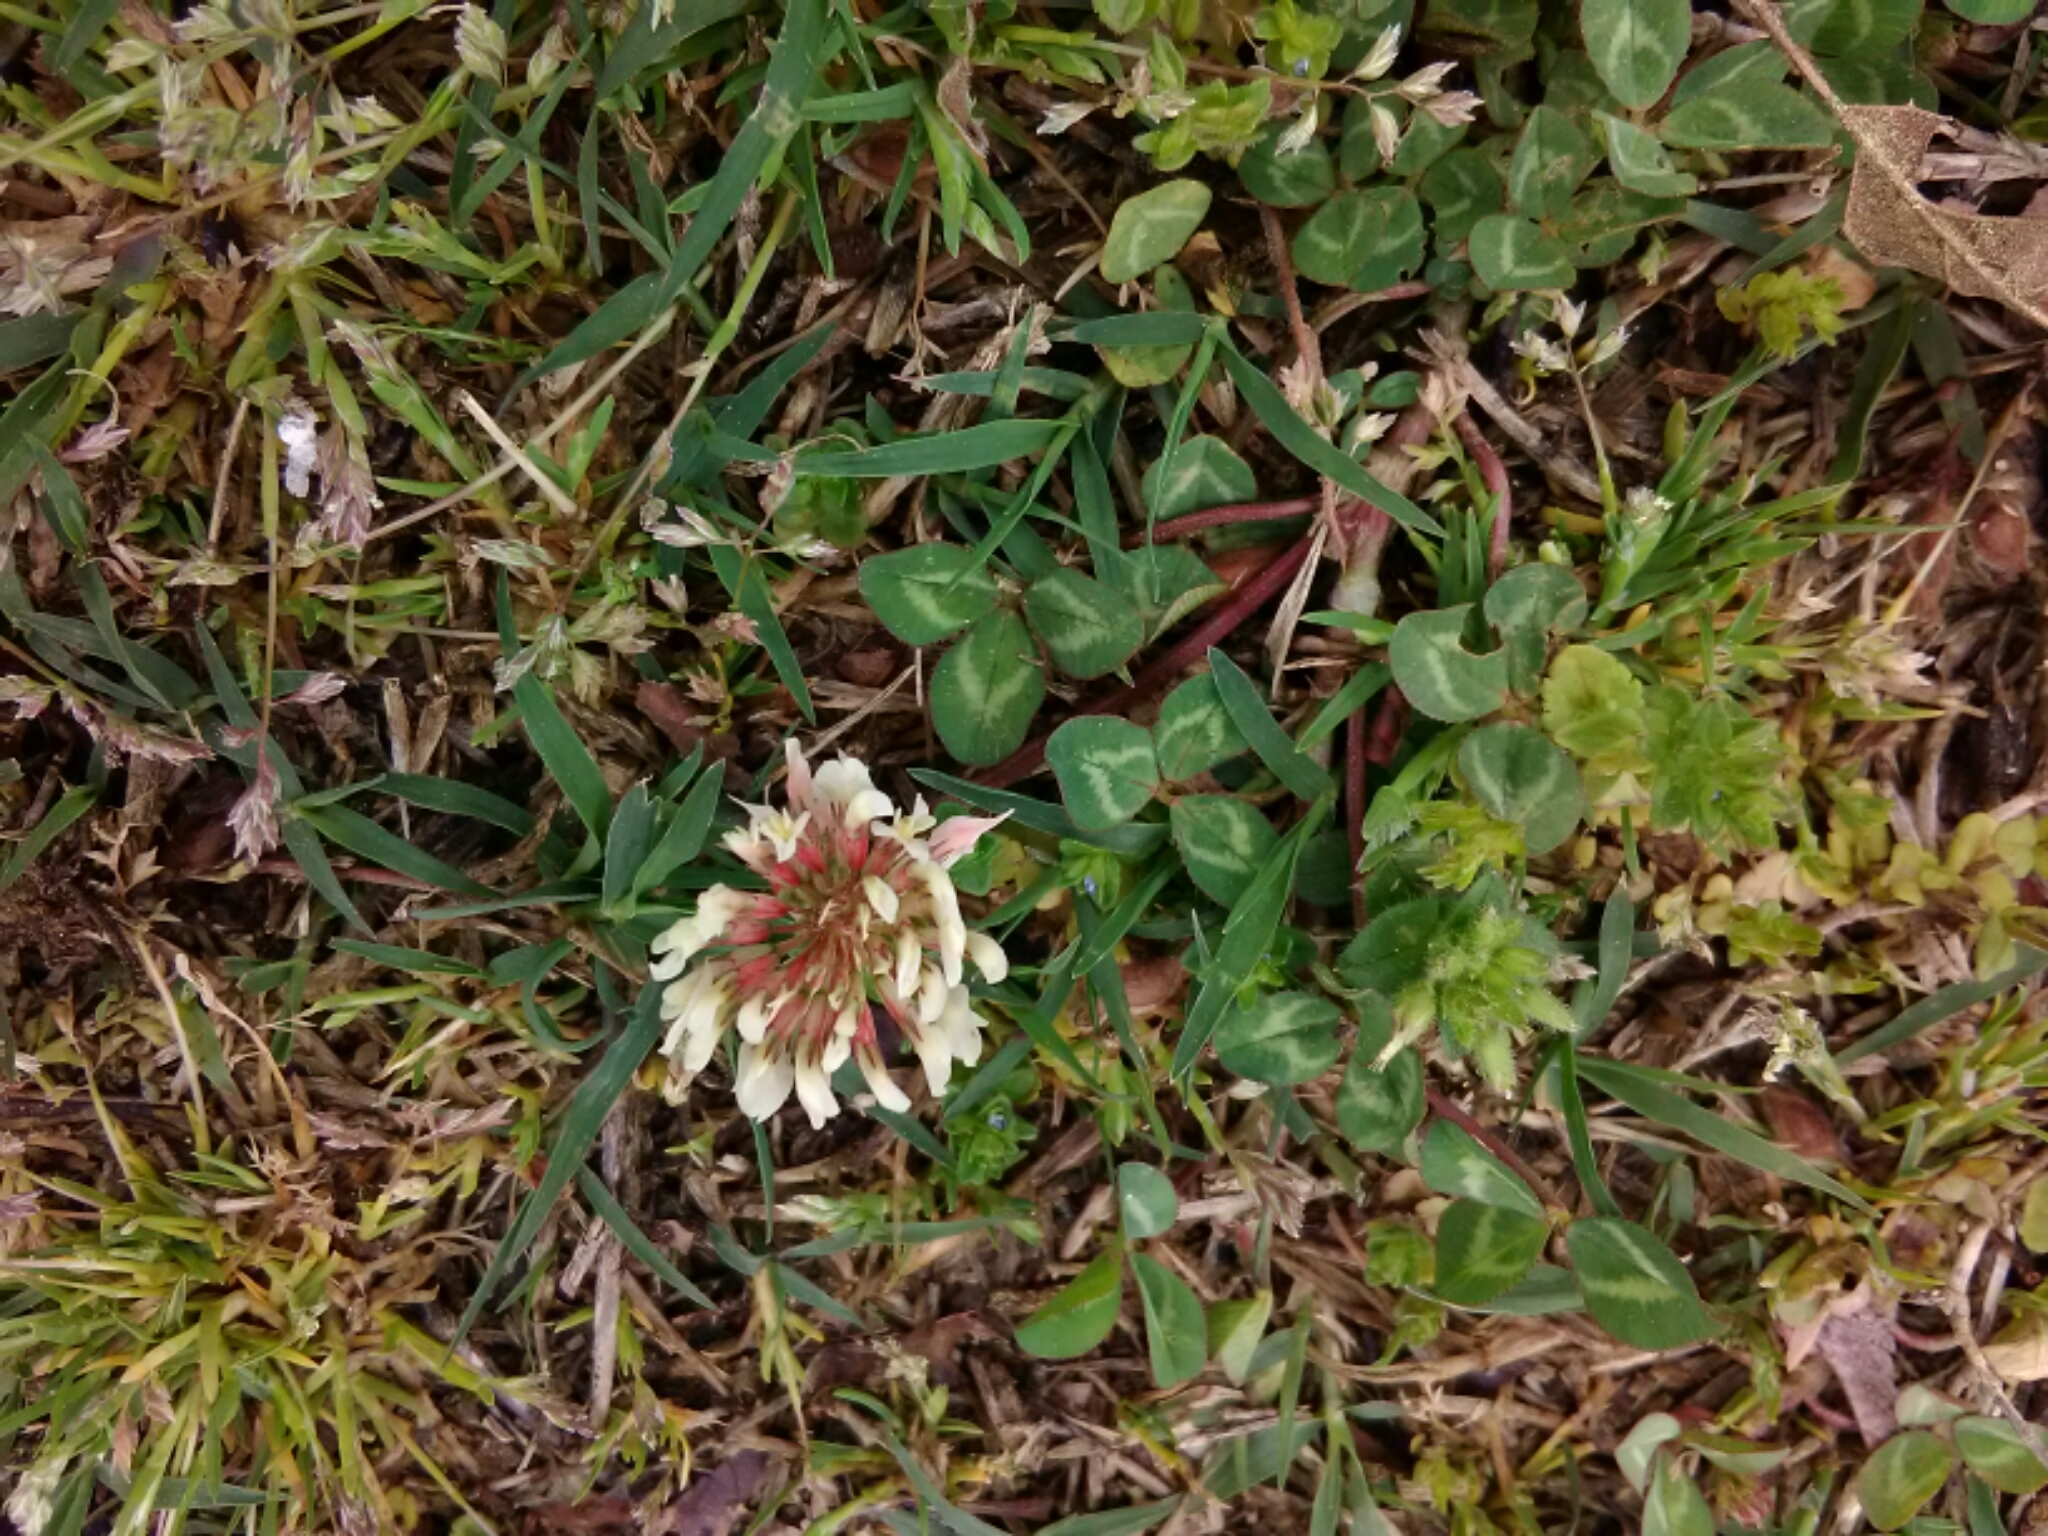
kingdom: Plantae
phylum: Tracheophyta
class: Magnoliopsida
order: Fabales
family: Fabaceae
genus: Trifolium
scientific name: Trifolium repens
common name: White clover
